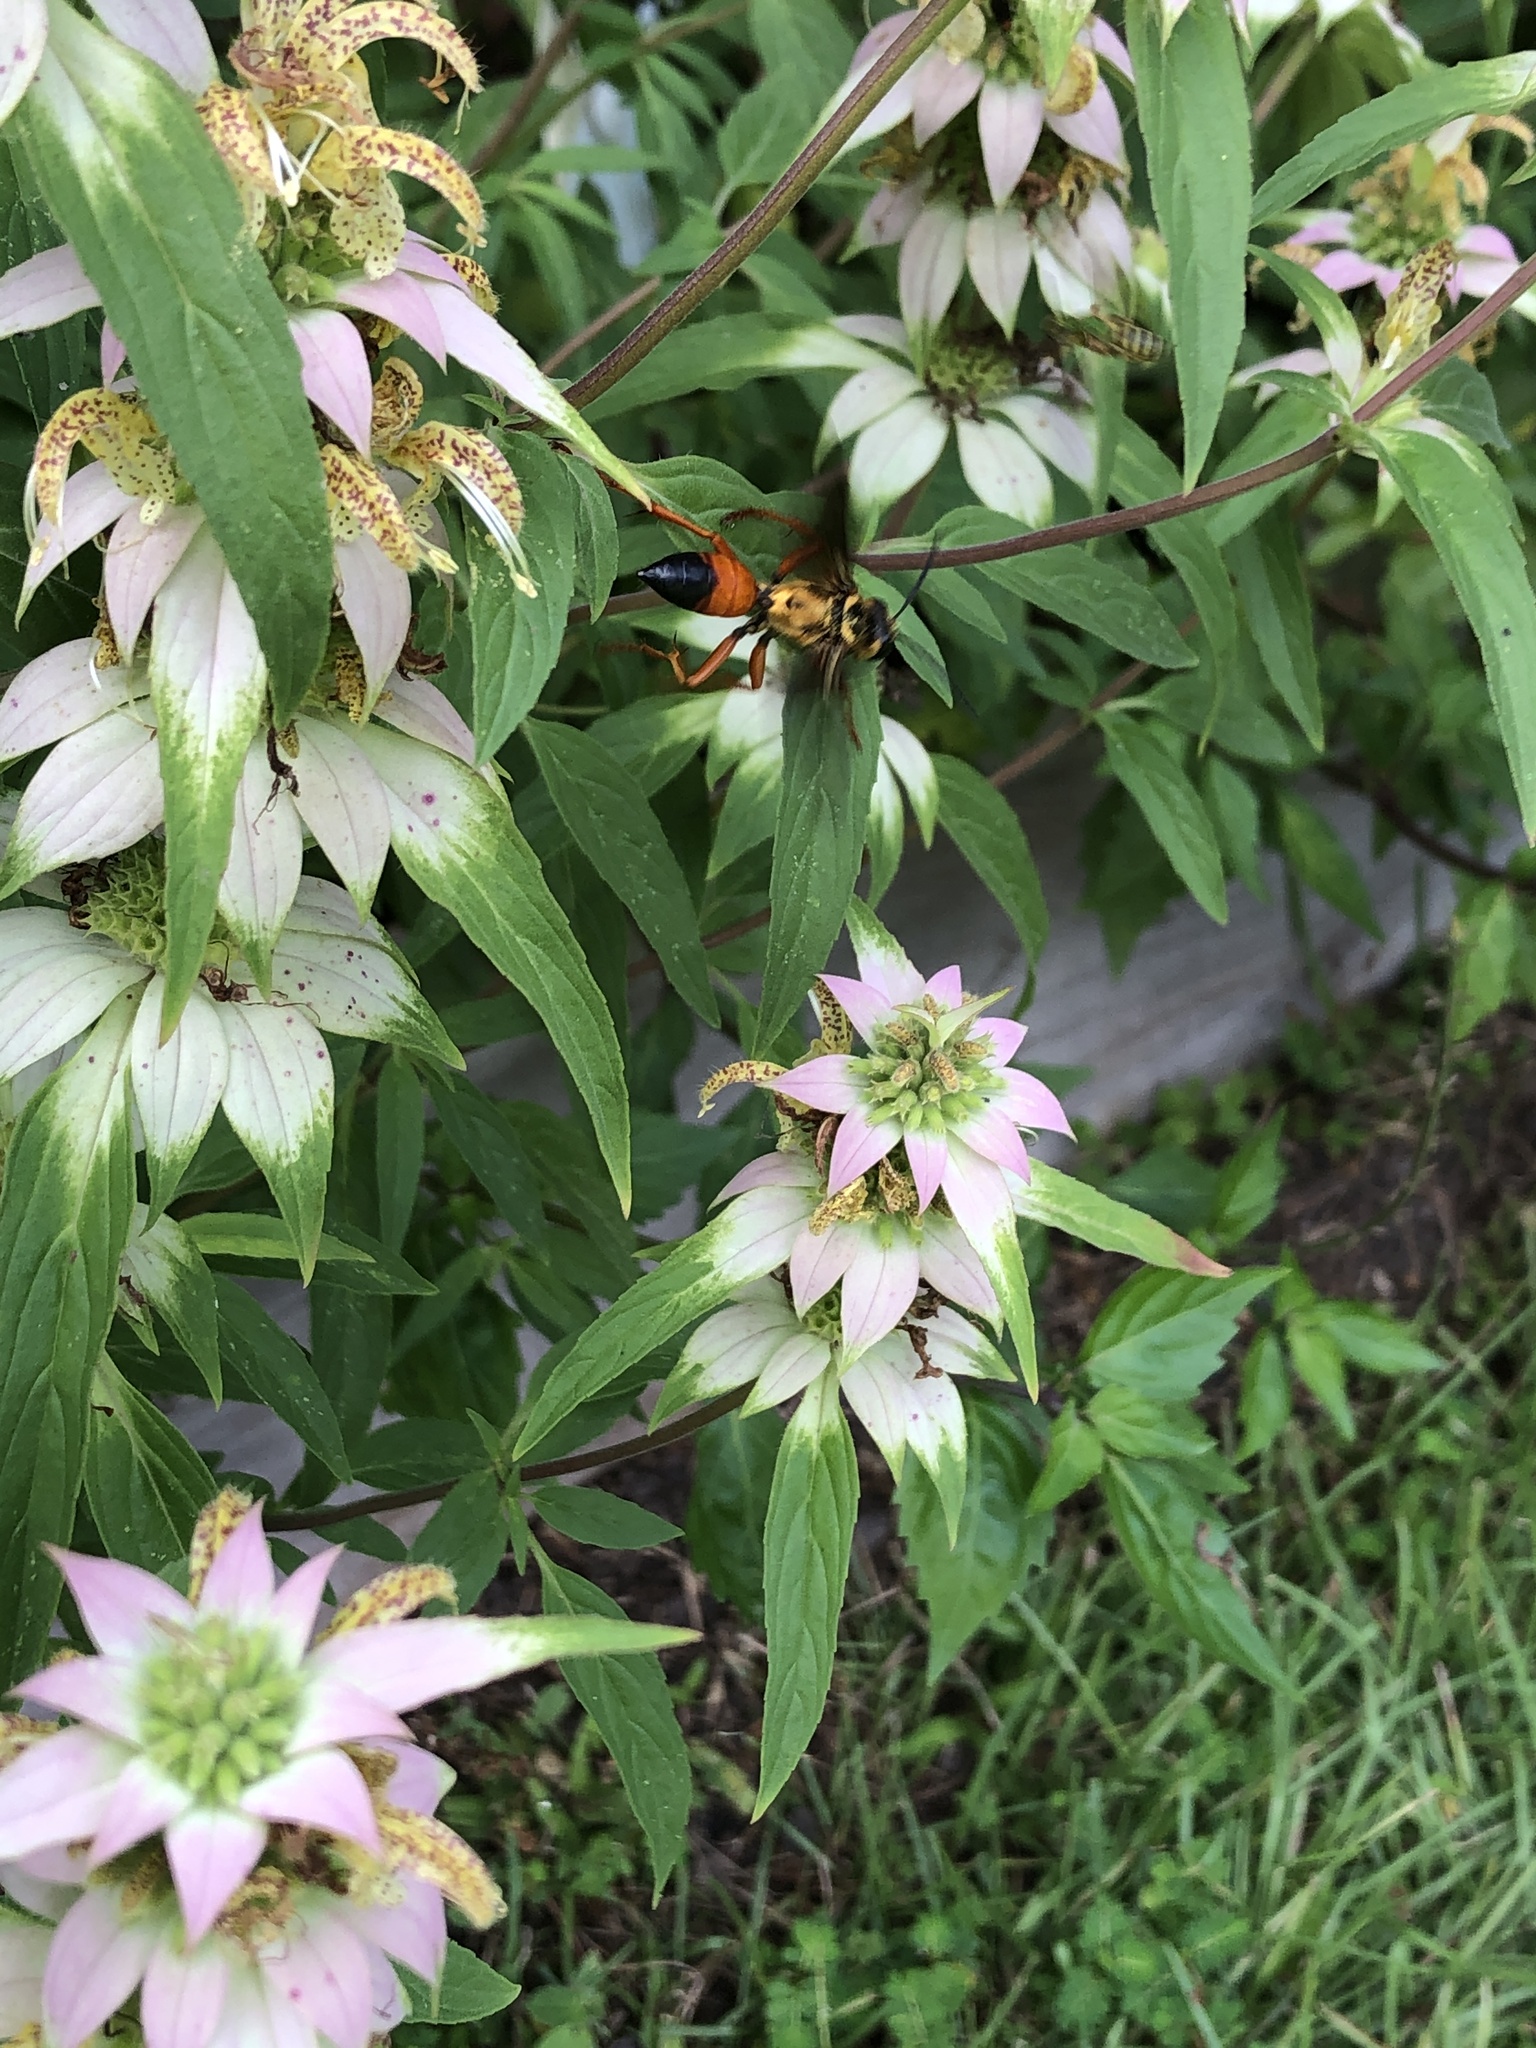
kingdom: Animalia
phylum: Arthropoda
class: Insecta
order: Hymenoptera
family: Sphecidae
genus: Sphex
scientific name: Sphex ichneumoneus
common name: Great golden digger wasp
